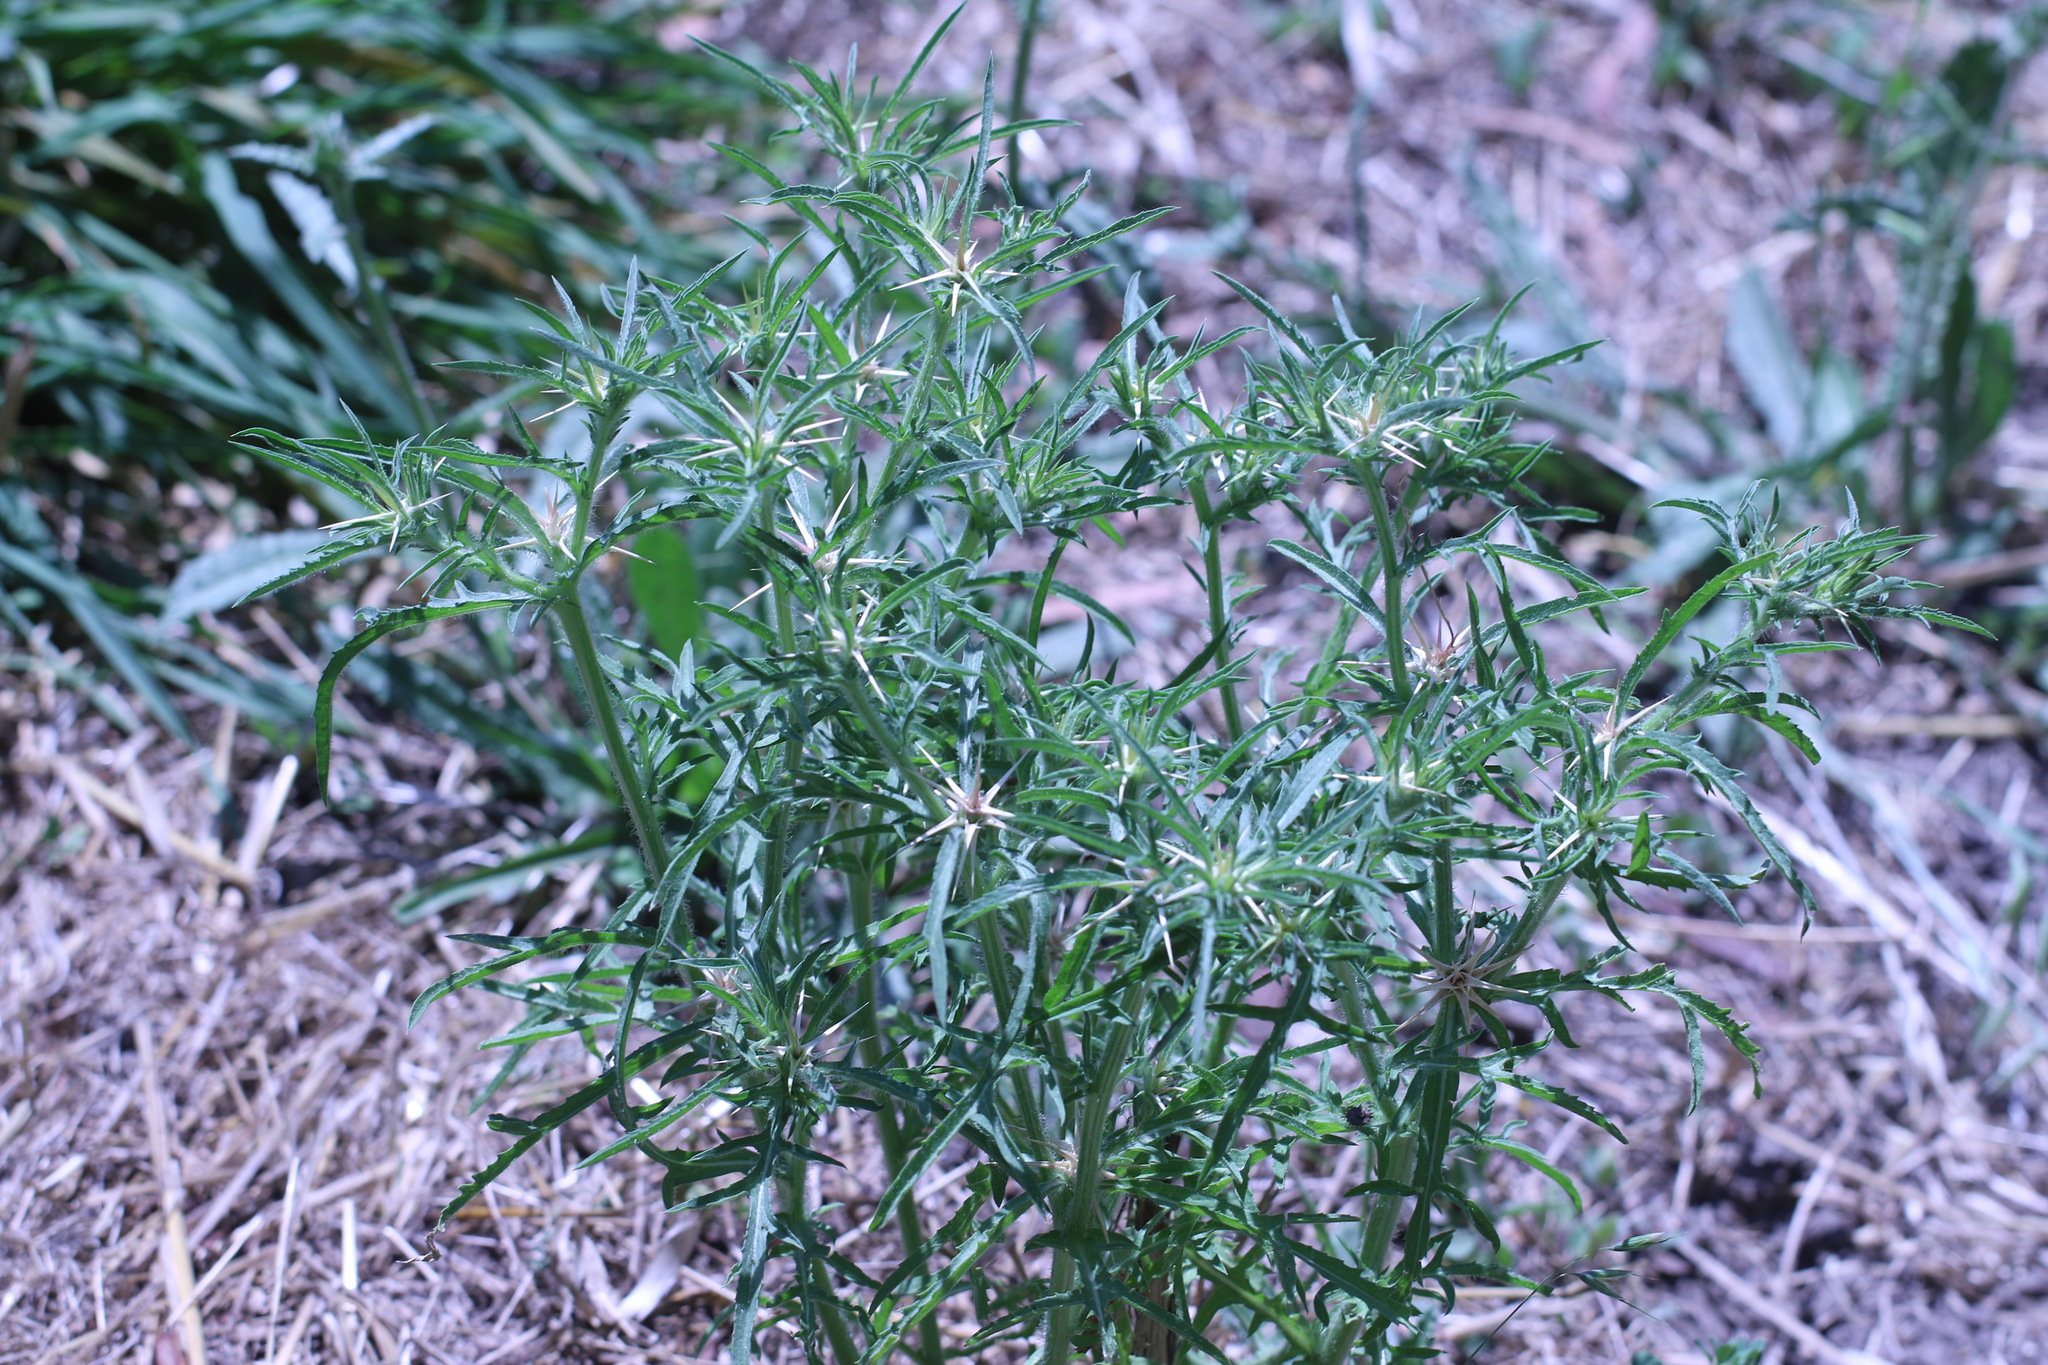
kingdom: Plantae
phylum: Tracheophyta
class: Magnoliopsida
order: Asterales
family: Asteraceae
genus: Centaurea
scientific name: Centaurea calcitrapa
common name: Red star-thistle
